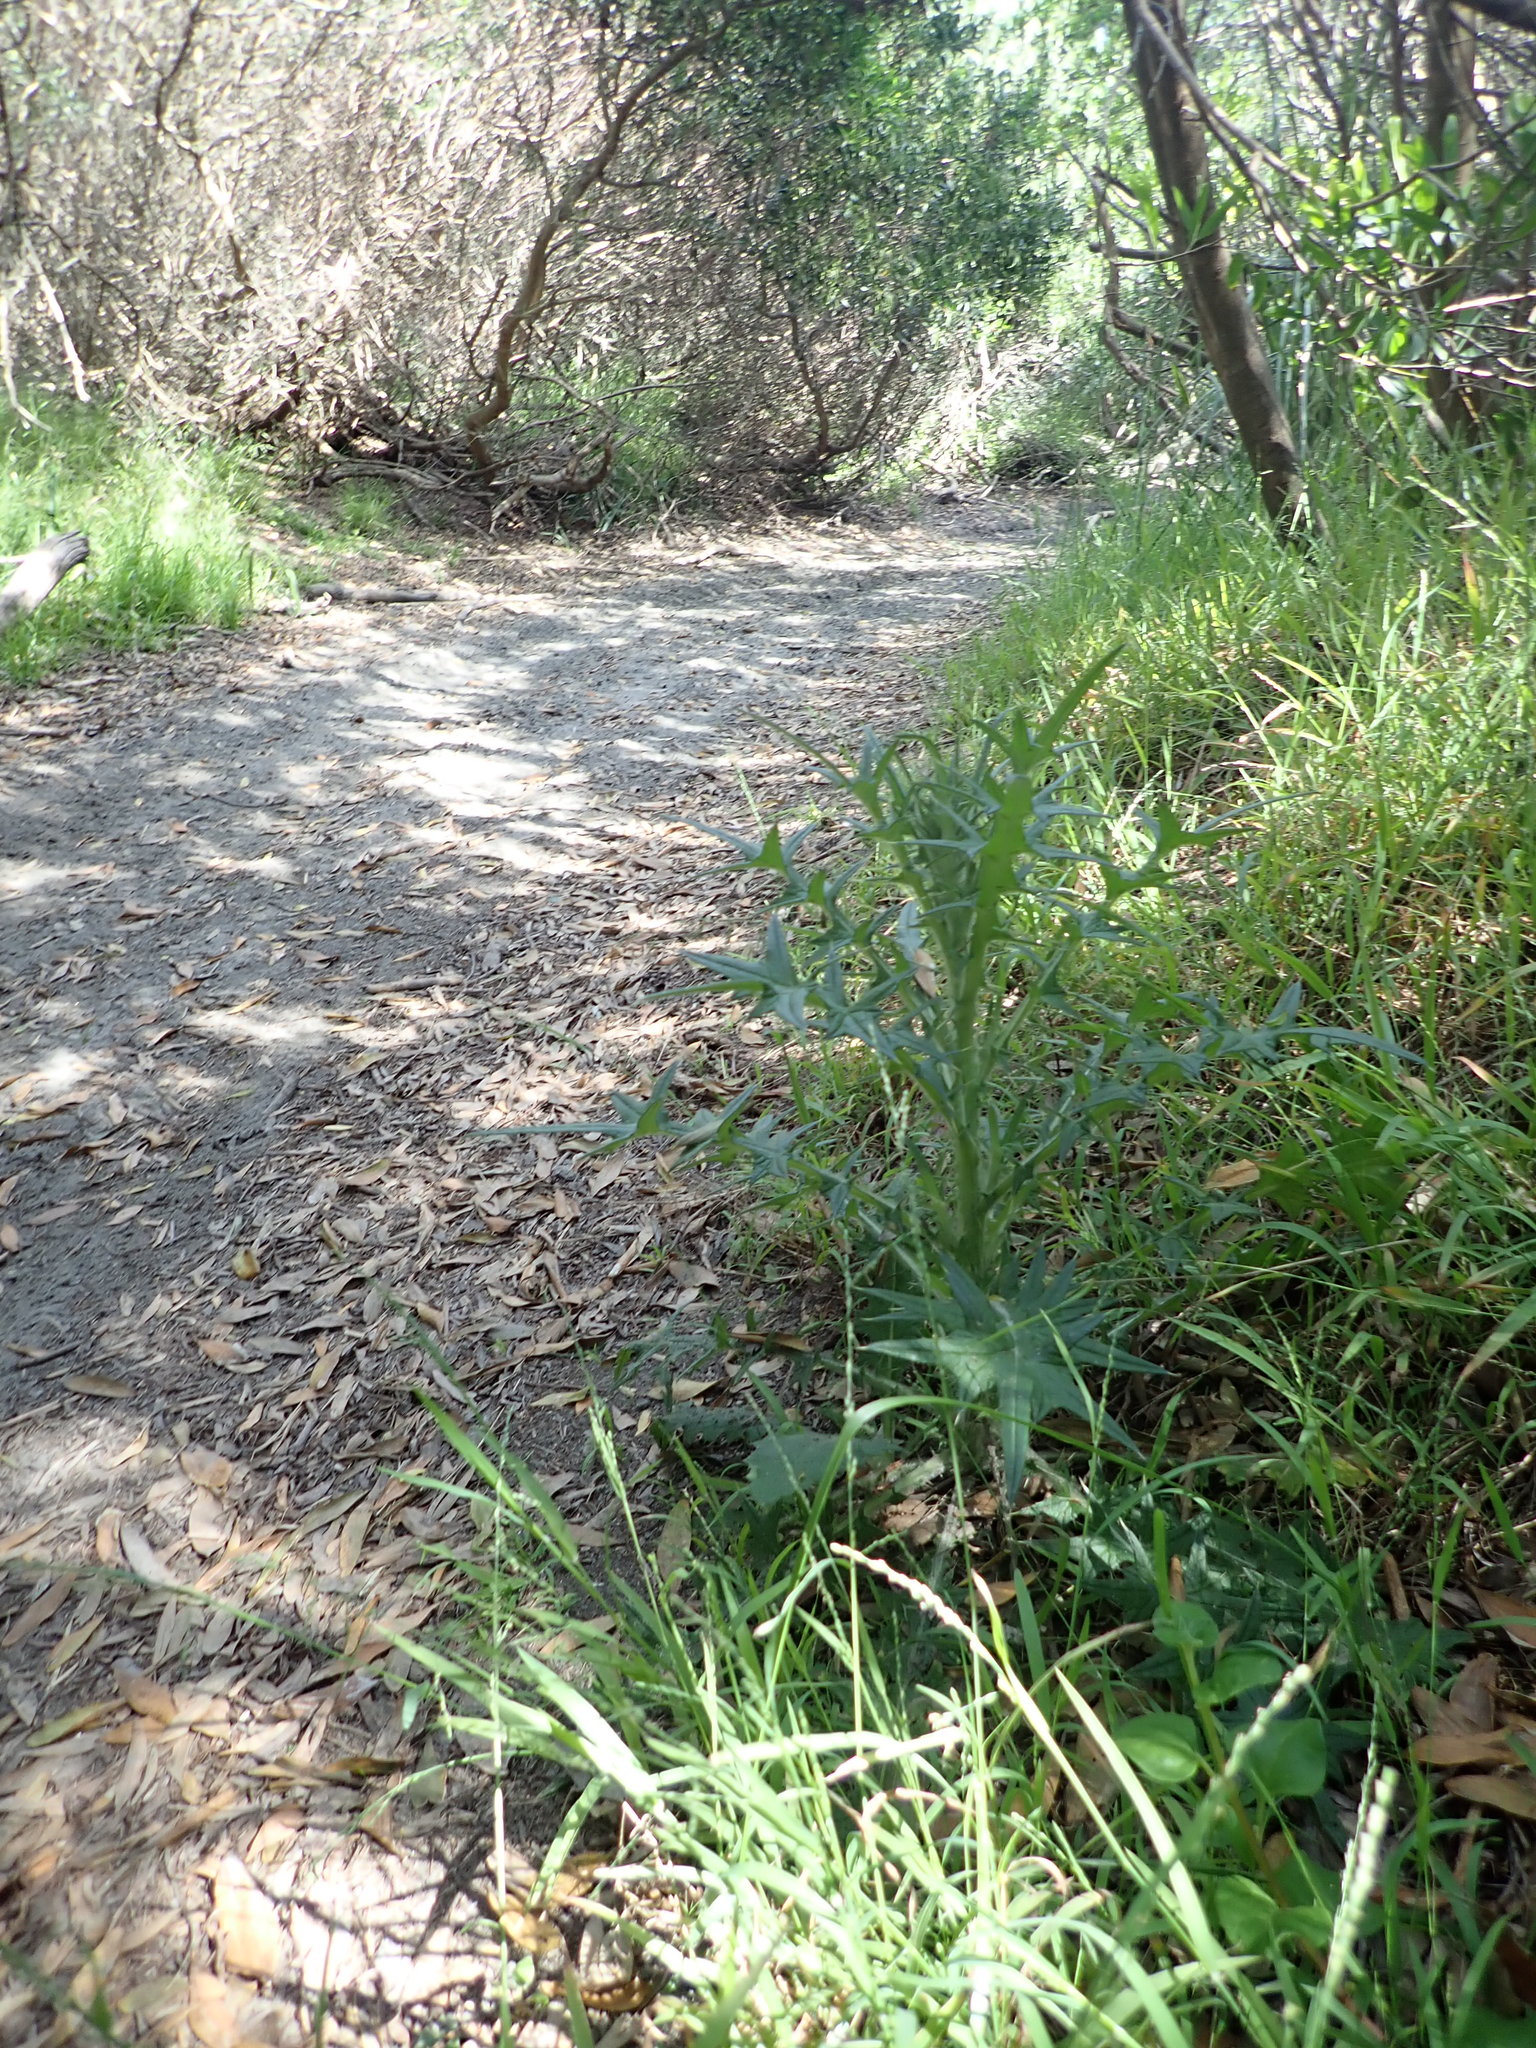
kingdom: Plantae
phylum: Tracheophyta
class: Magnoliopsida
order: Asterales
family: Asteraceae
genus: Cirsium
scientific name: Cirsium vulgare
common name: Bull thistle
